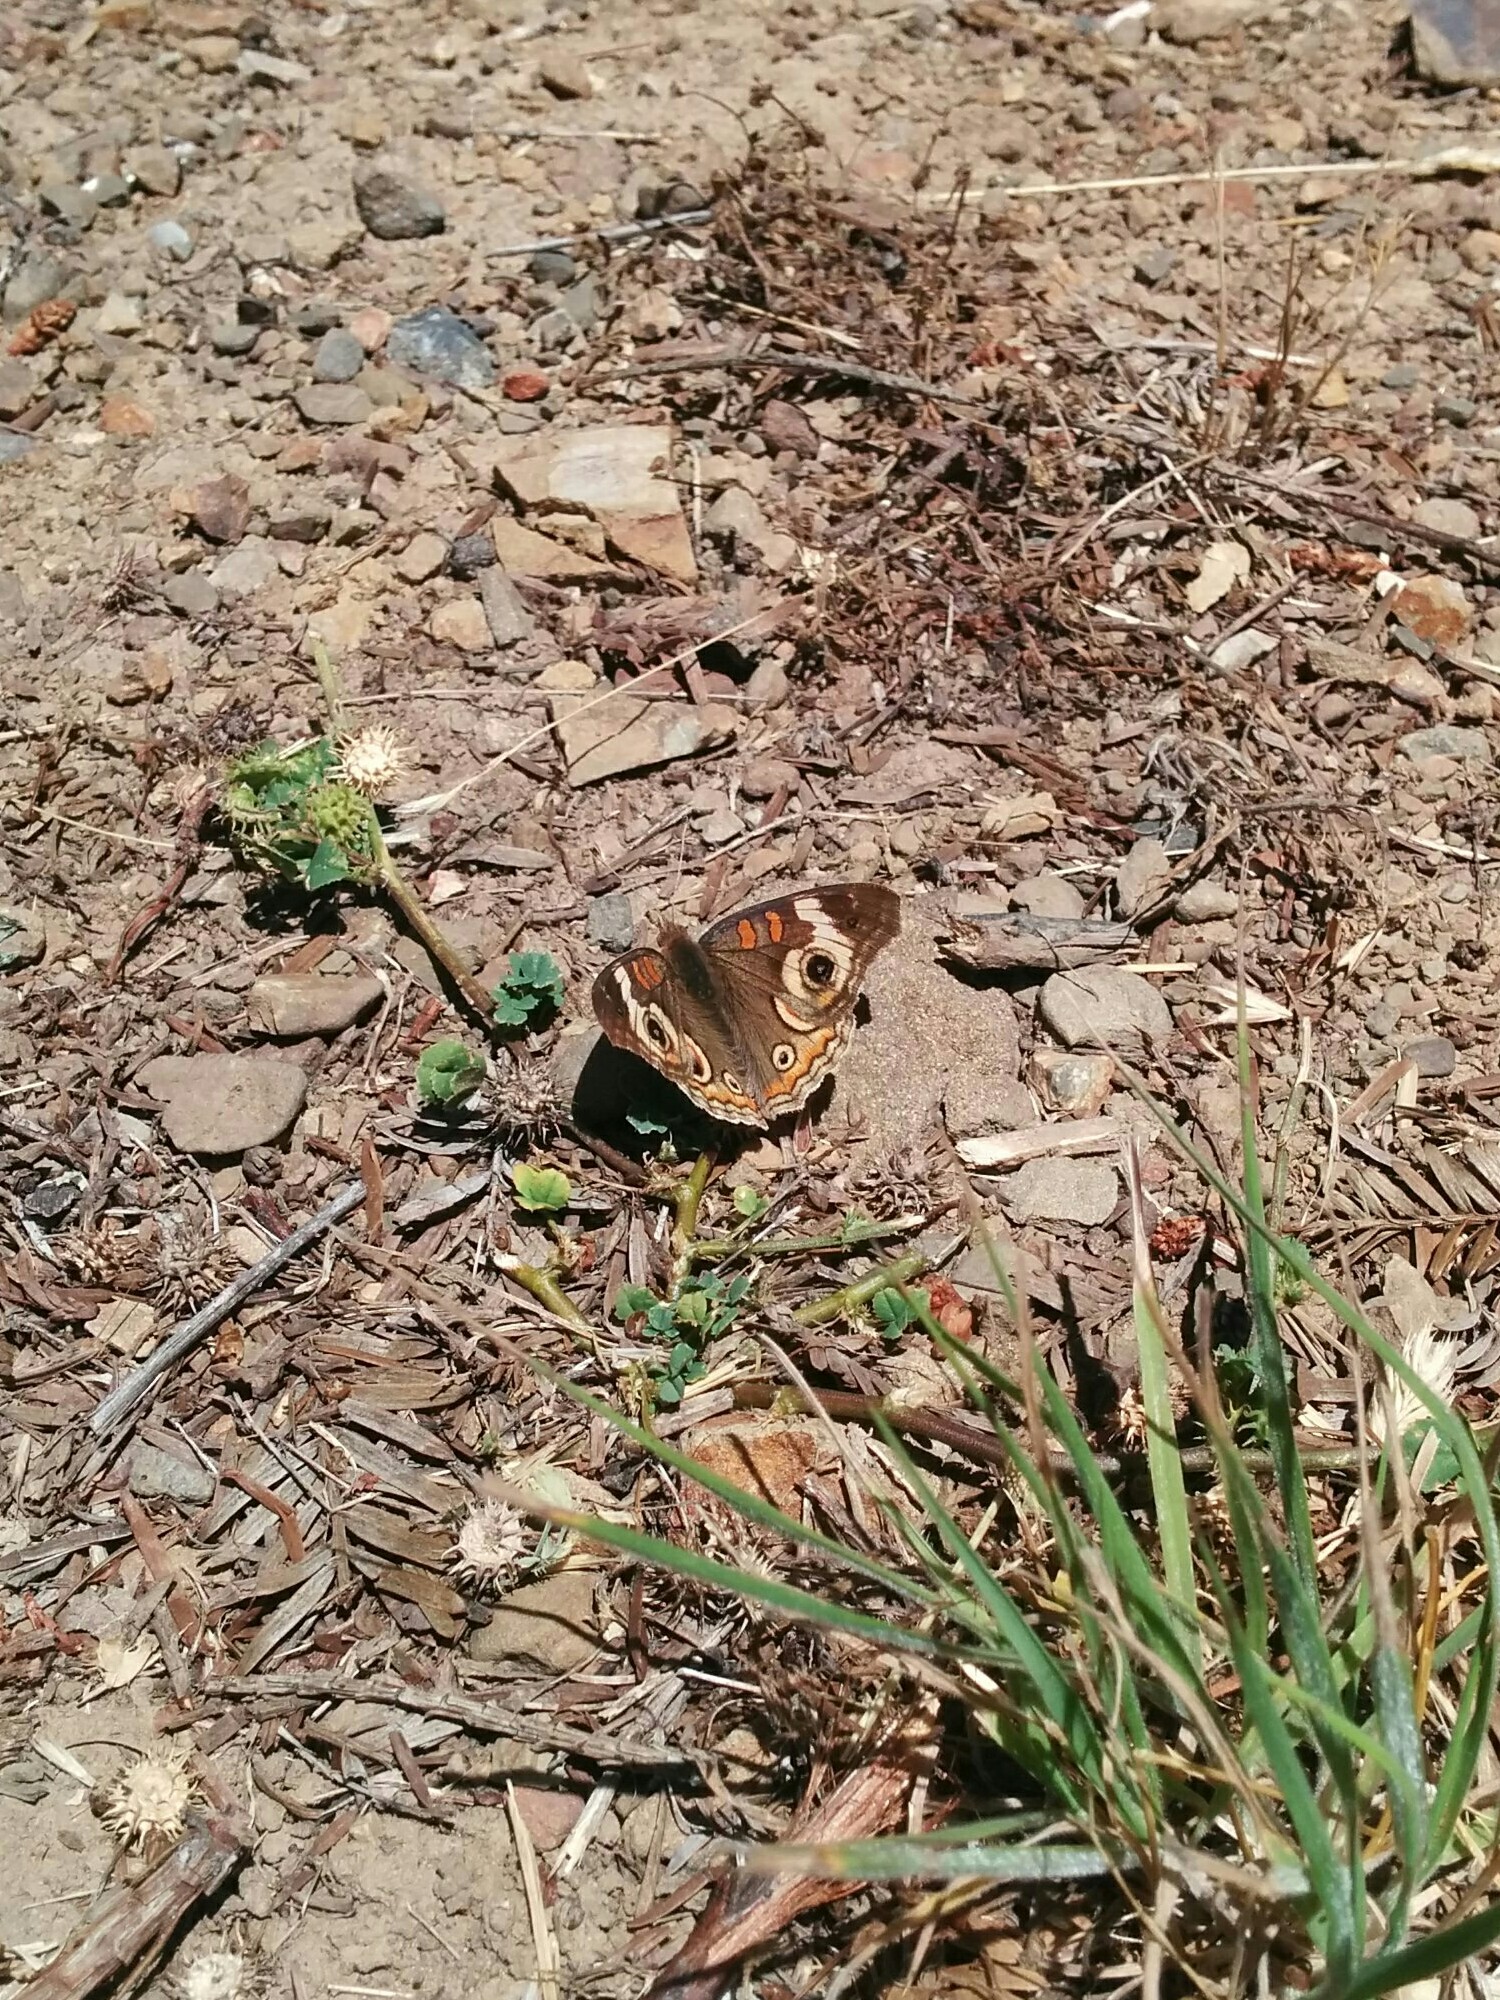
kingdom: Animalia
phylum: Arthropoda
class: Insecta
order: Lepidoptera
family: Nymphalidae
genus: Junonia
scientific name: Junonia grisea
